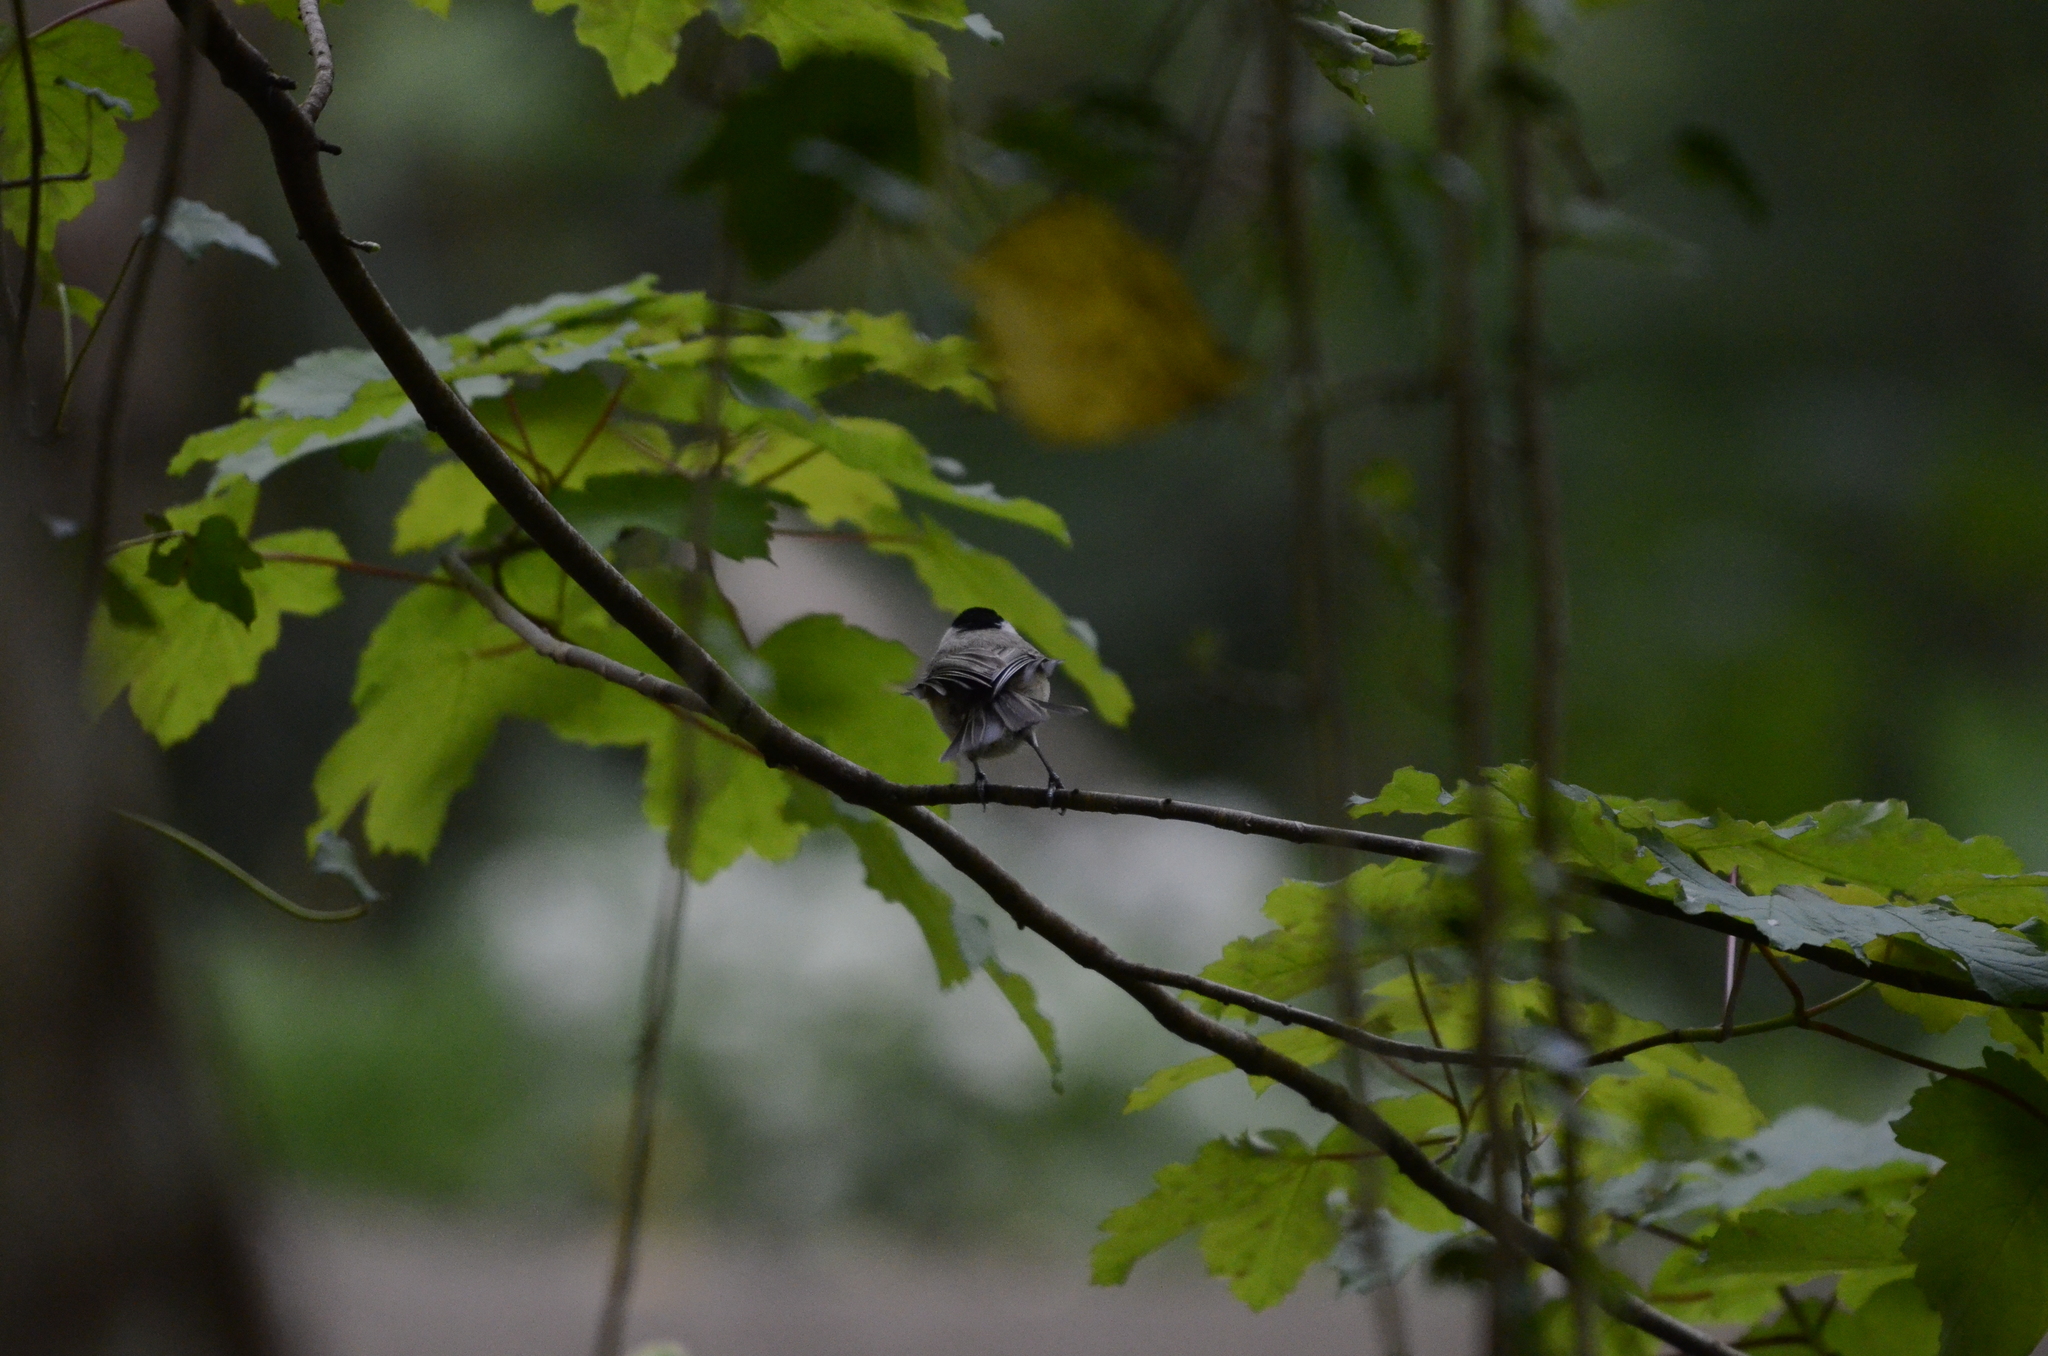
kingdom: Animalia
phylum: Chordata
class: Aves
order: Passeriformes
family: Paridae
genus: Poecile
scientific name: Poecile palustris
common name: Marsh tit
